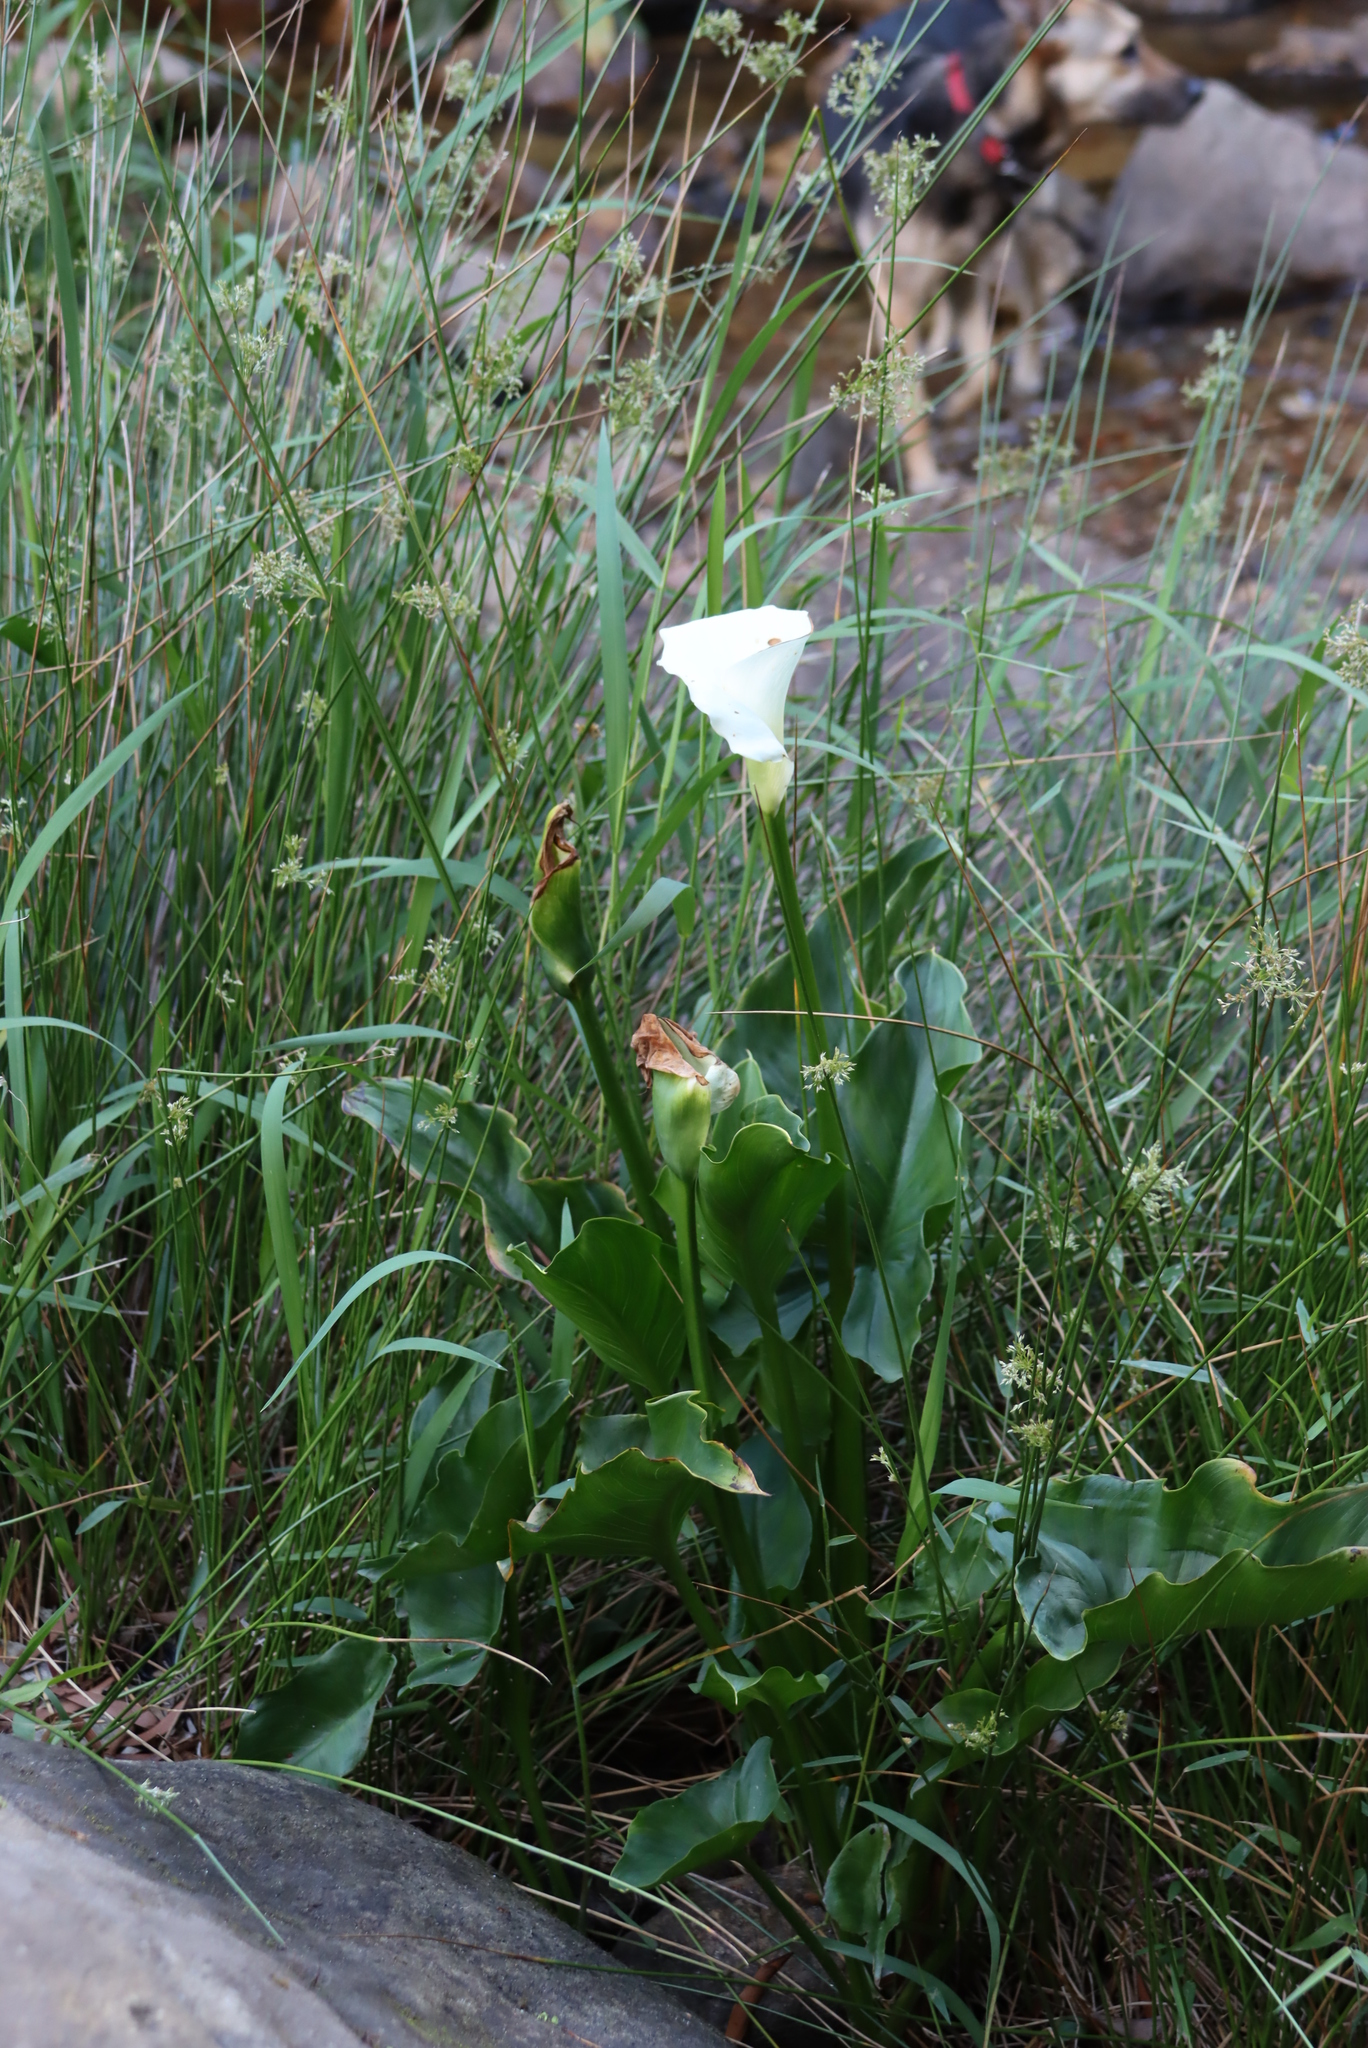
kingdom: Plantae
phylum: Tracheophyta
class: Liliopsida
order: Alismatales
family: Araceae
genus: Zantedeschia
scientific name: Zantedeschia aethiopica
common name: Altar-lily
